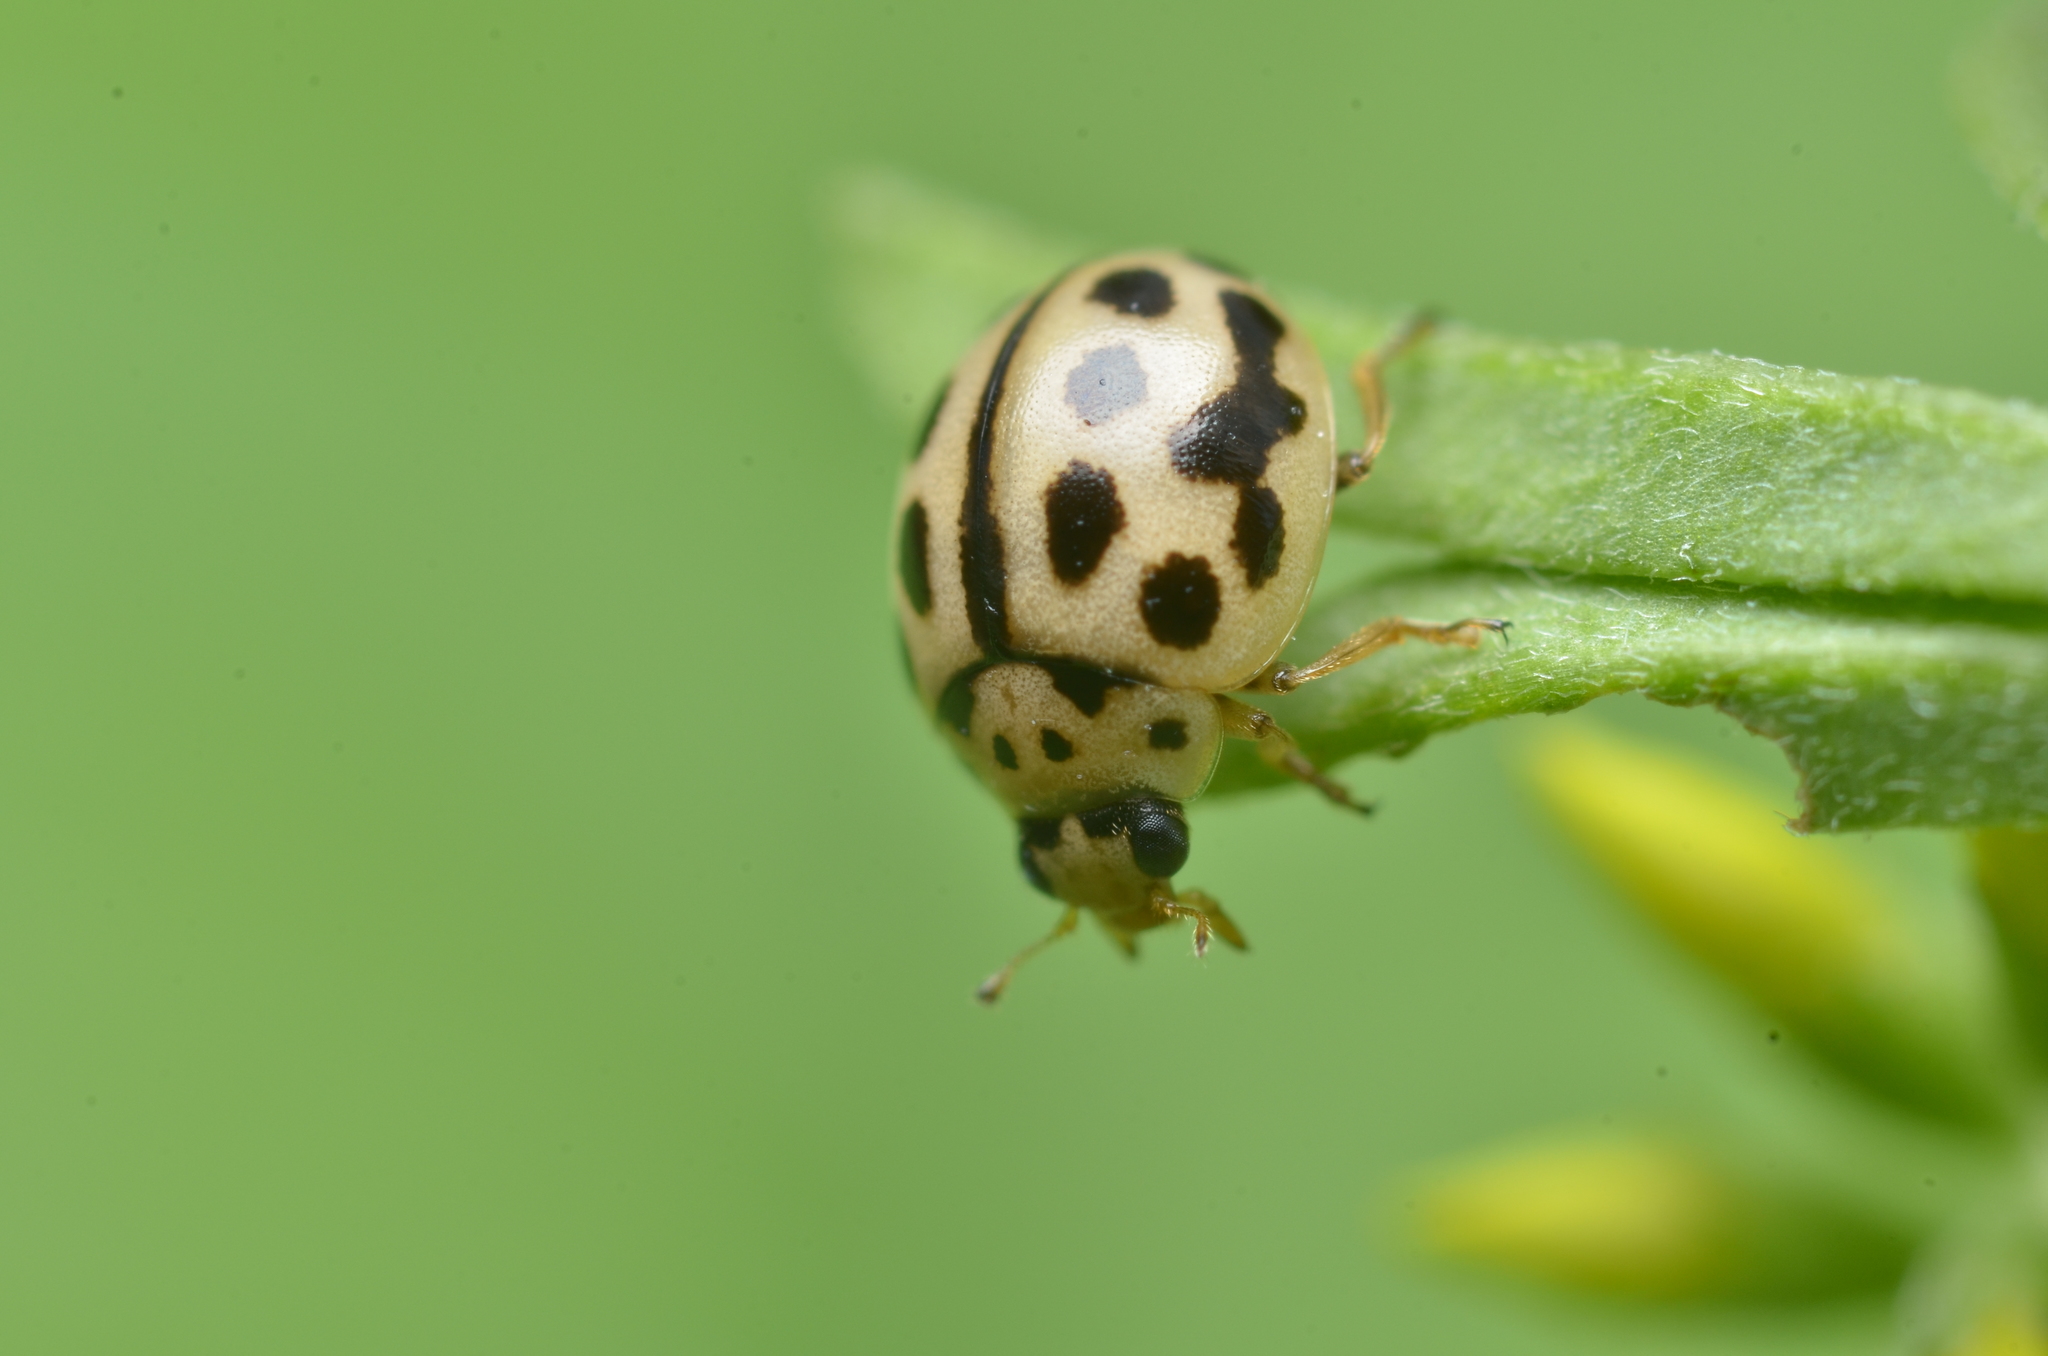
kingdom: Animalia
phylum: Arthropoda
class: Insecta
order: Coleoptera
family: Coccinellidae
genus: Tytthaspis
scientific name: Tytthaspis sedecimpunctata
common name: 16-spot ladybird
